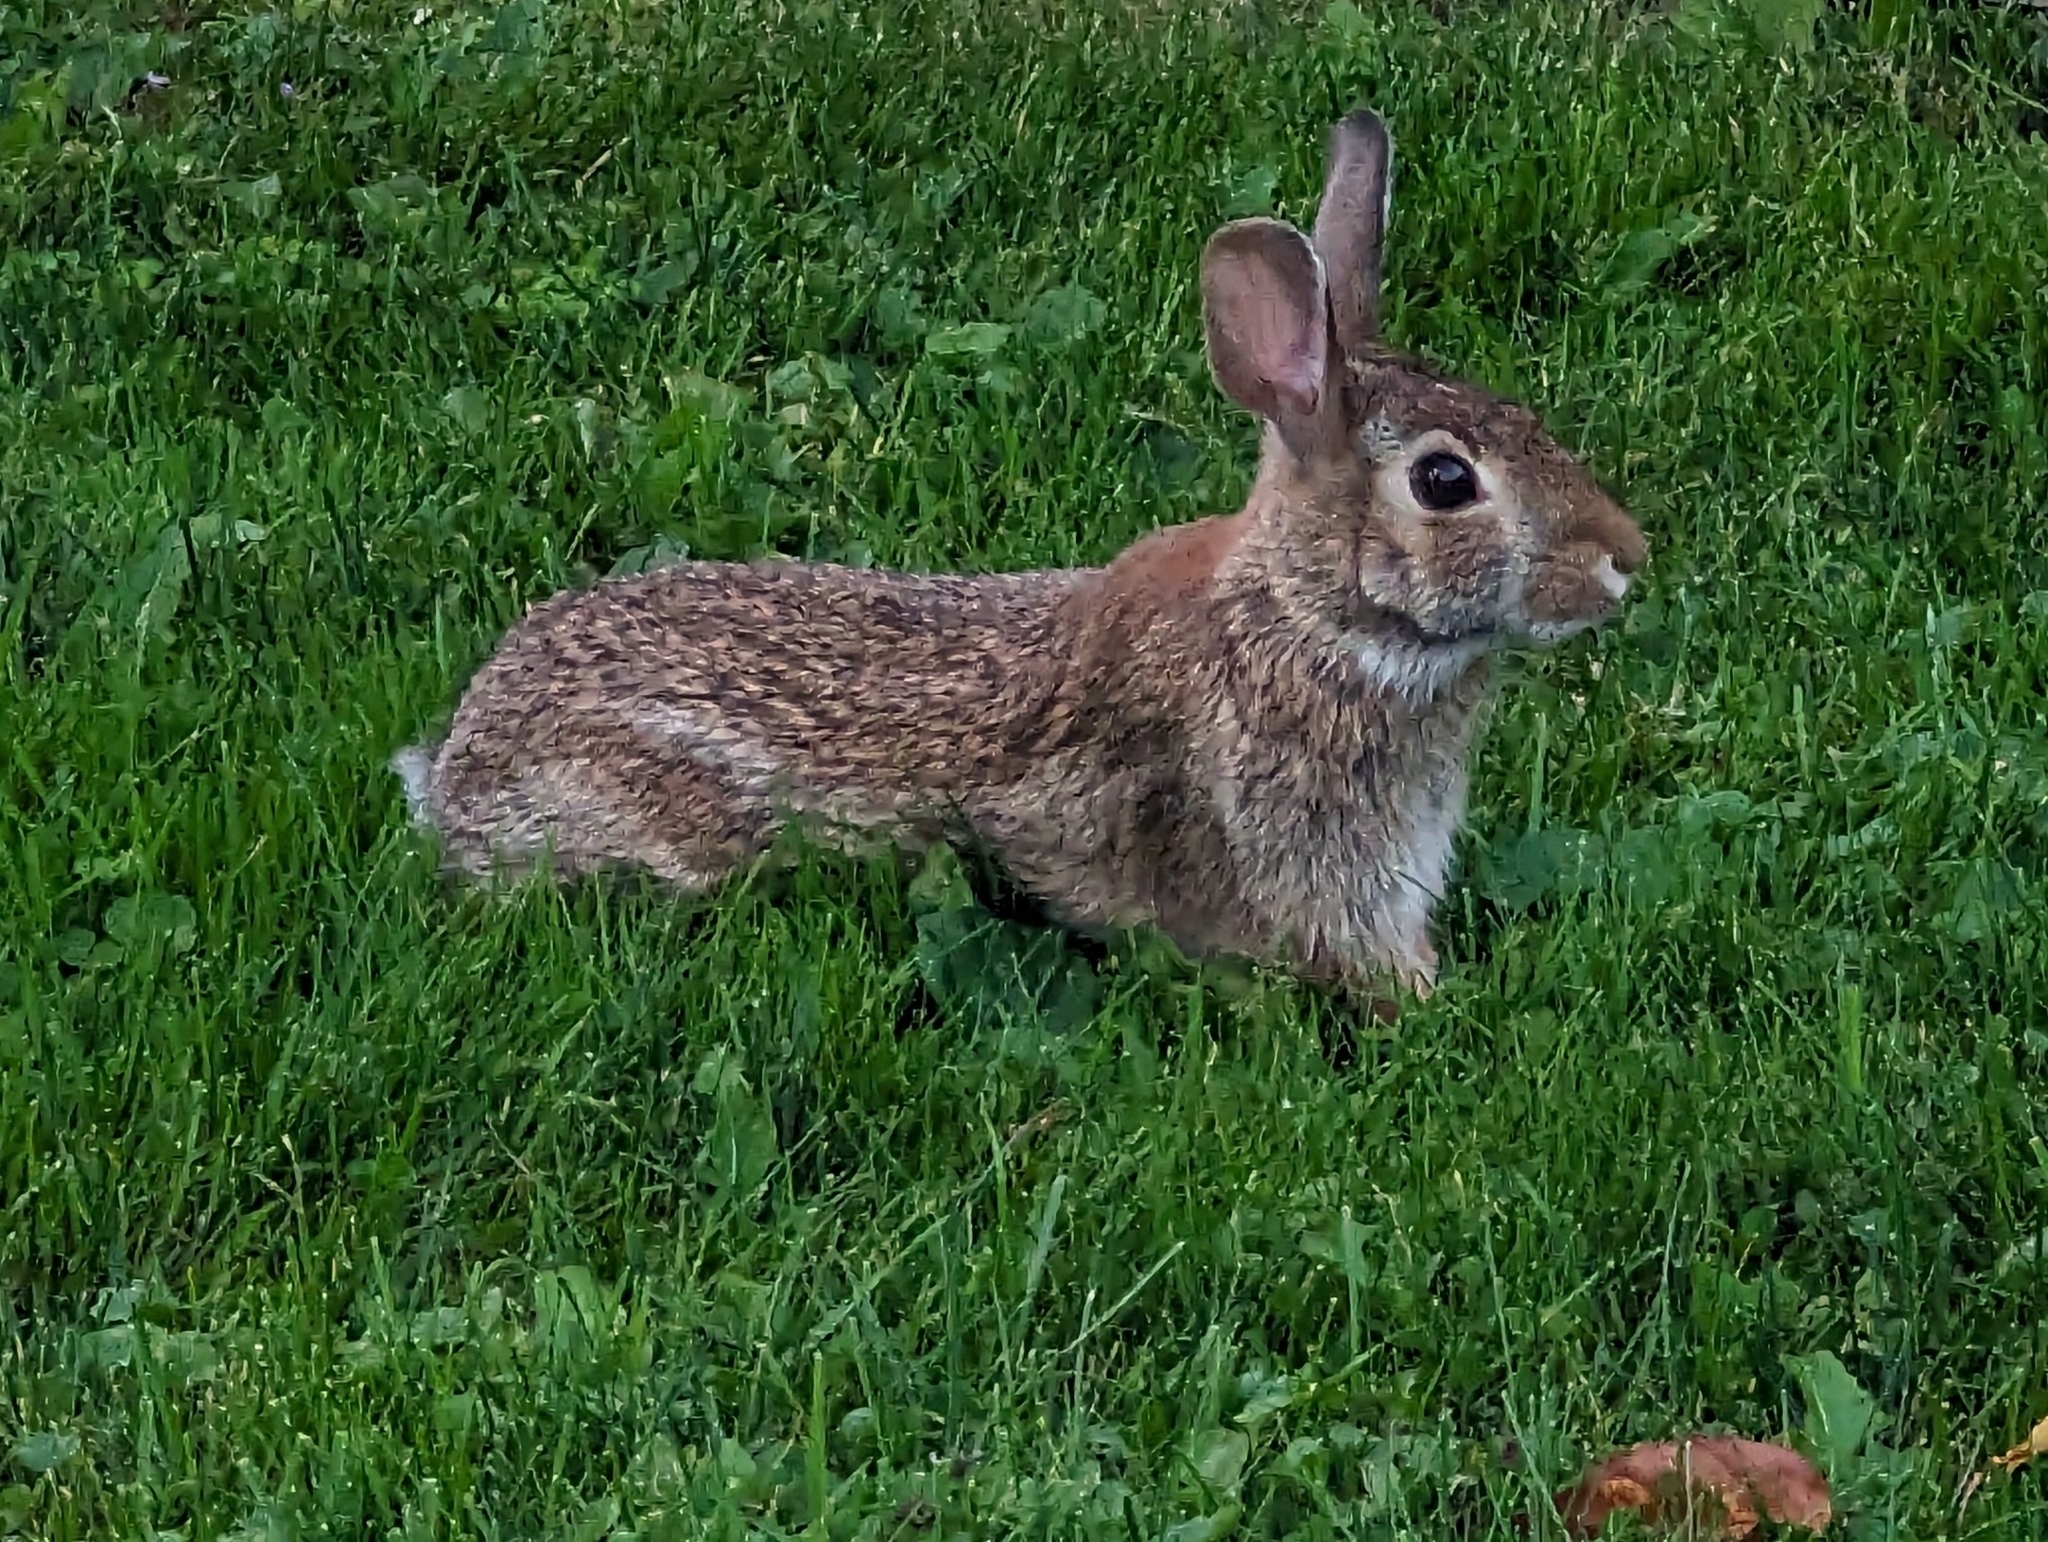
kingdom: Animalia
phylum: Chordata
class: Mammalia
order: Lagomorpha
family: Leporidae
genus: Sylvilagus
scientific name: Sylvilagus floridanus
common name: Eastern cottontail
